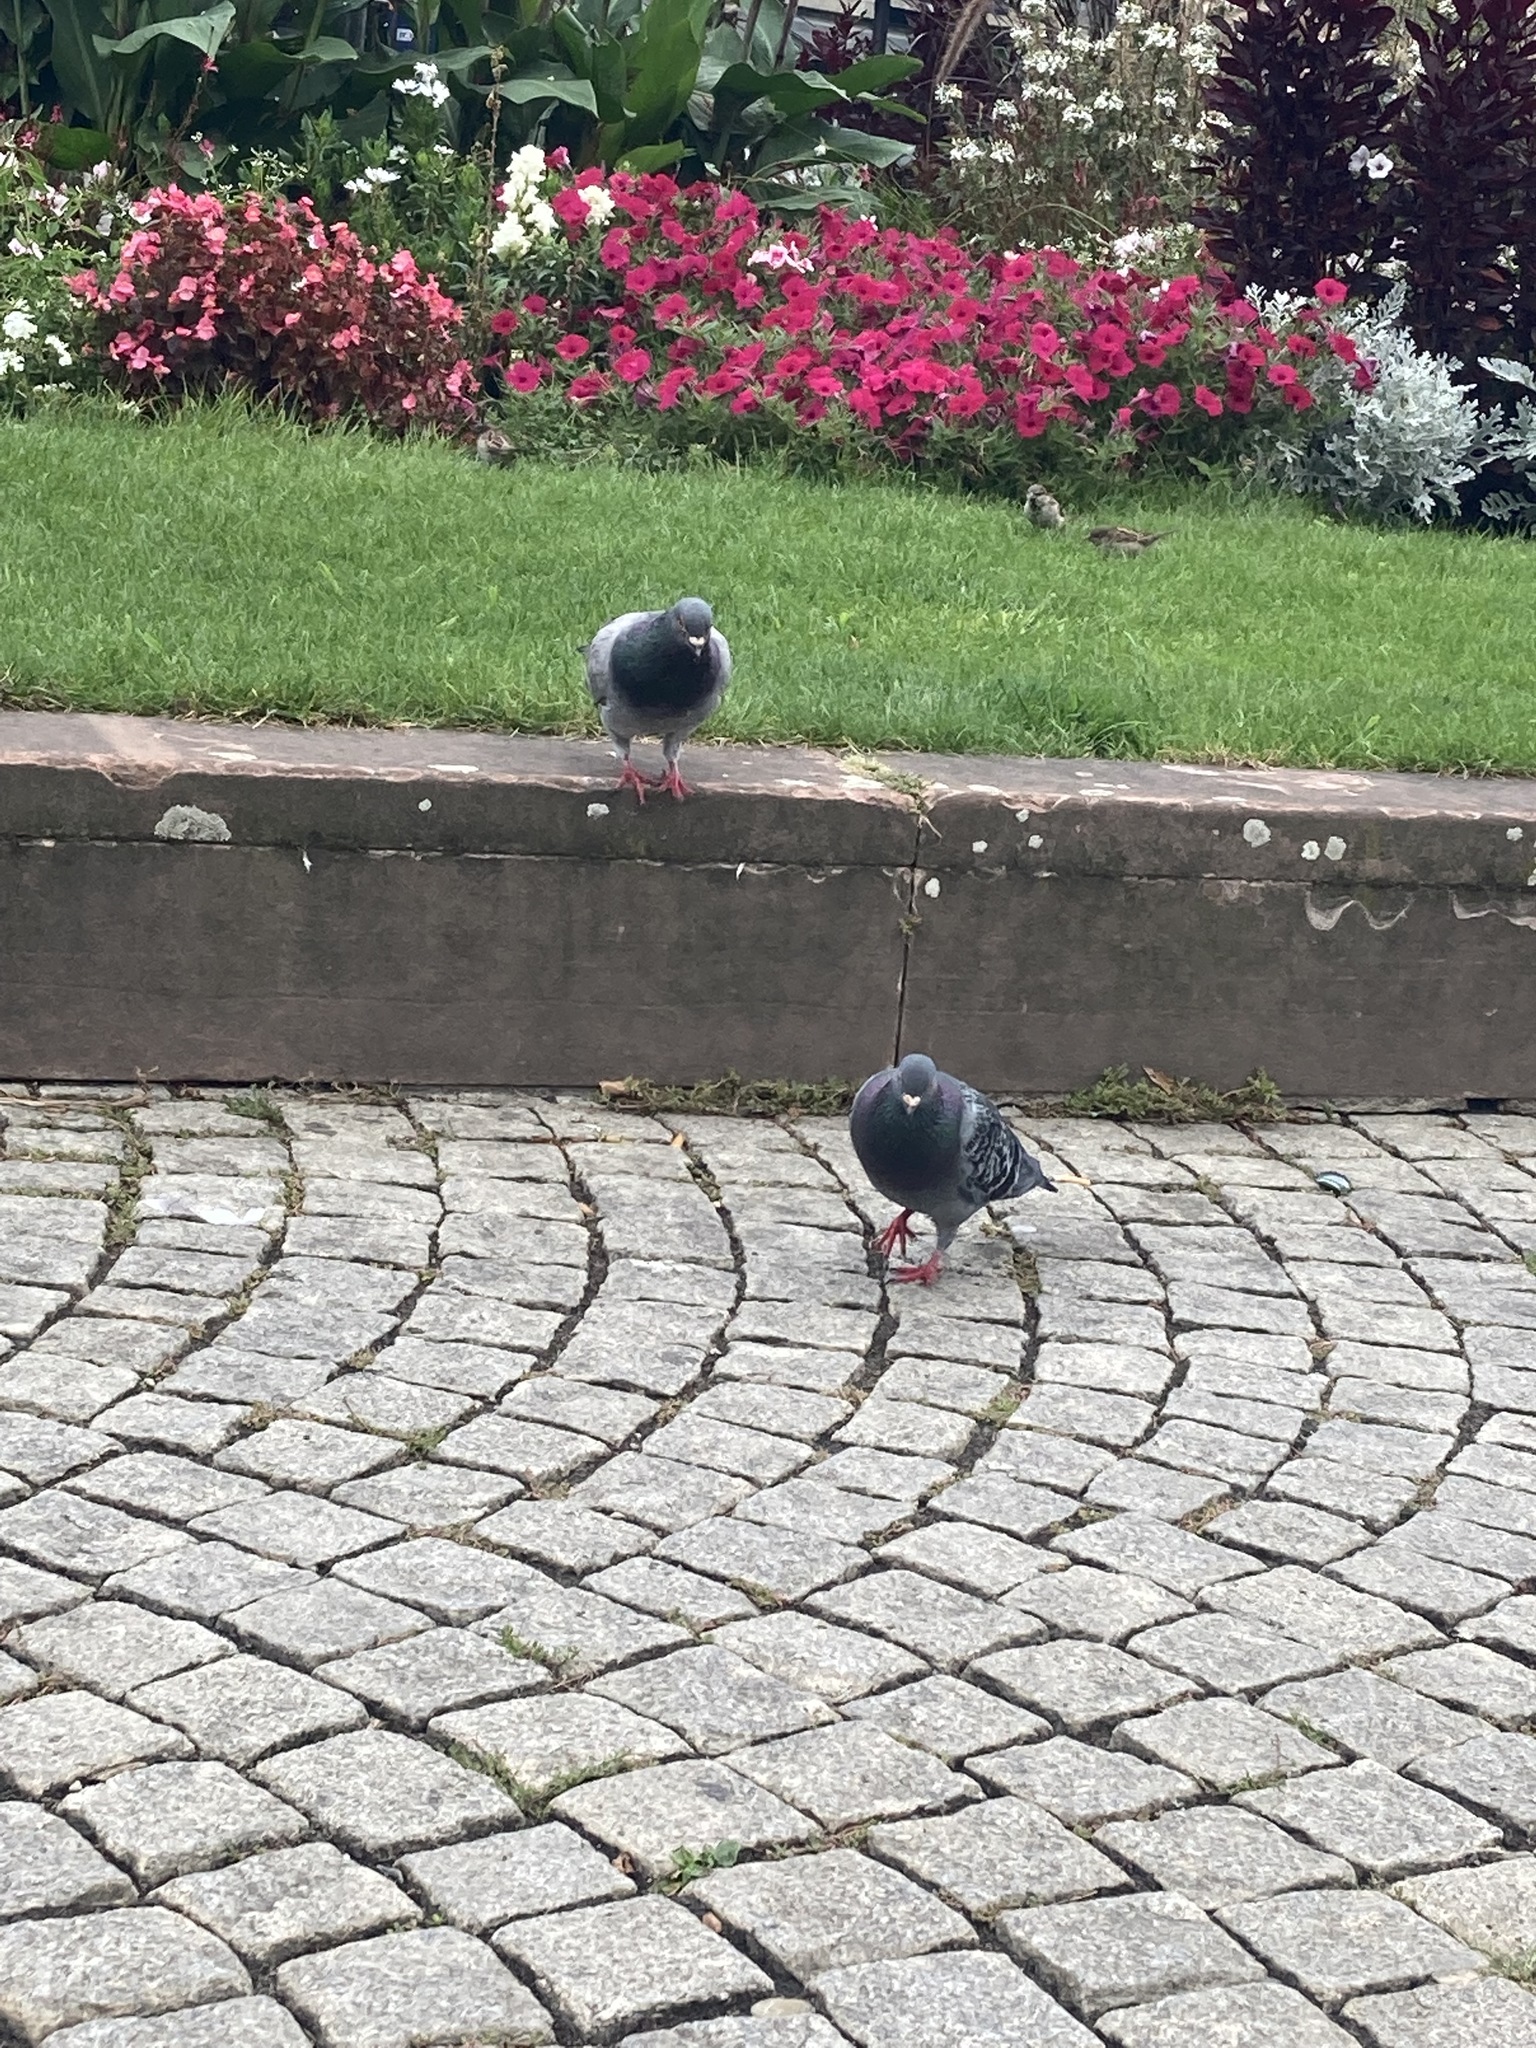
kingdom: Animalia
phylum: Chordata
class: Aves
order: Columbiformes
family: Columbidae
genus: Columba
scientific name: Columba livia
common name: Rock pigeon
